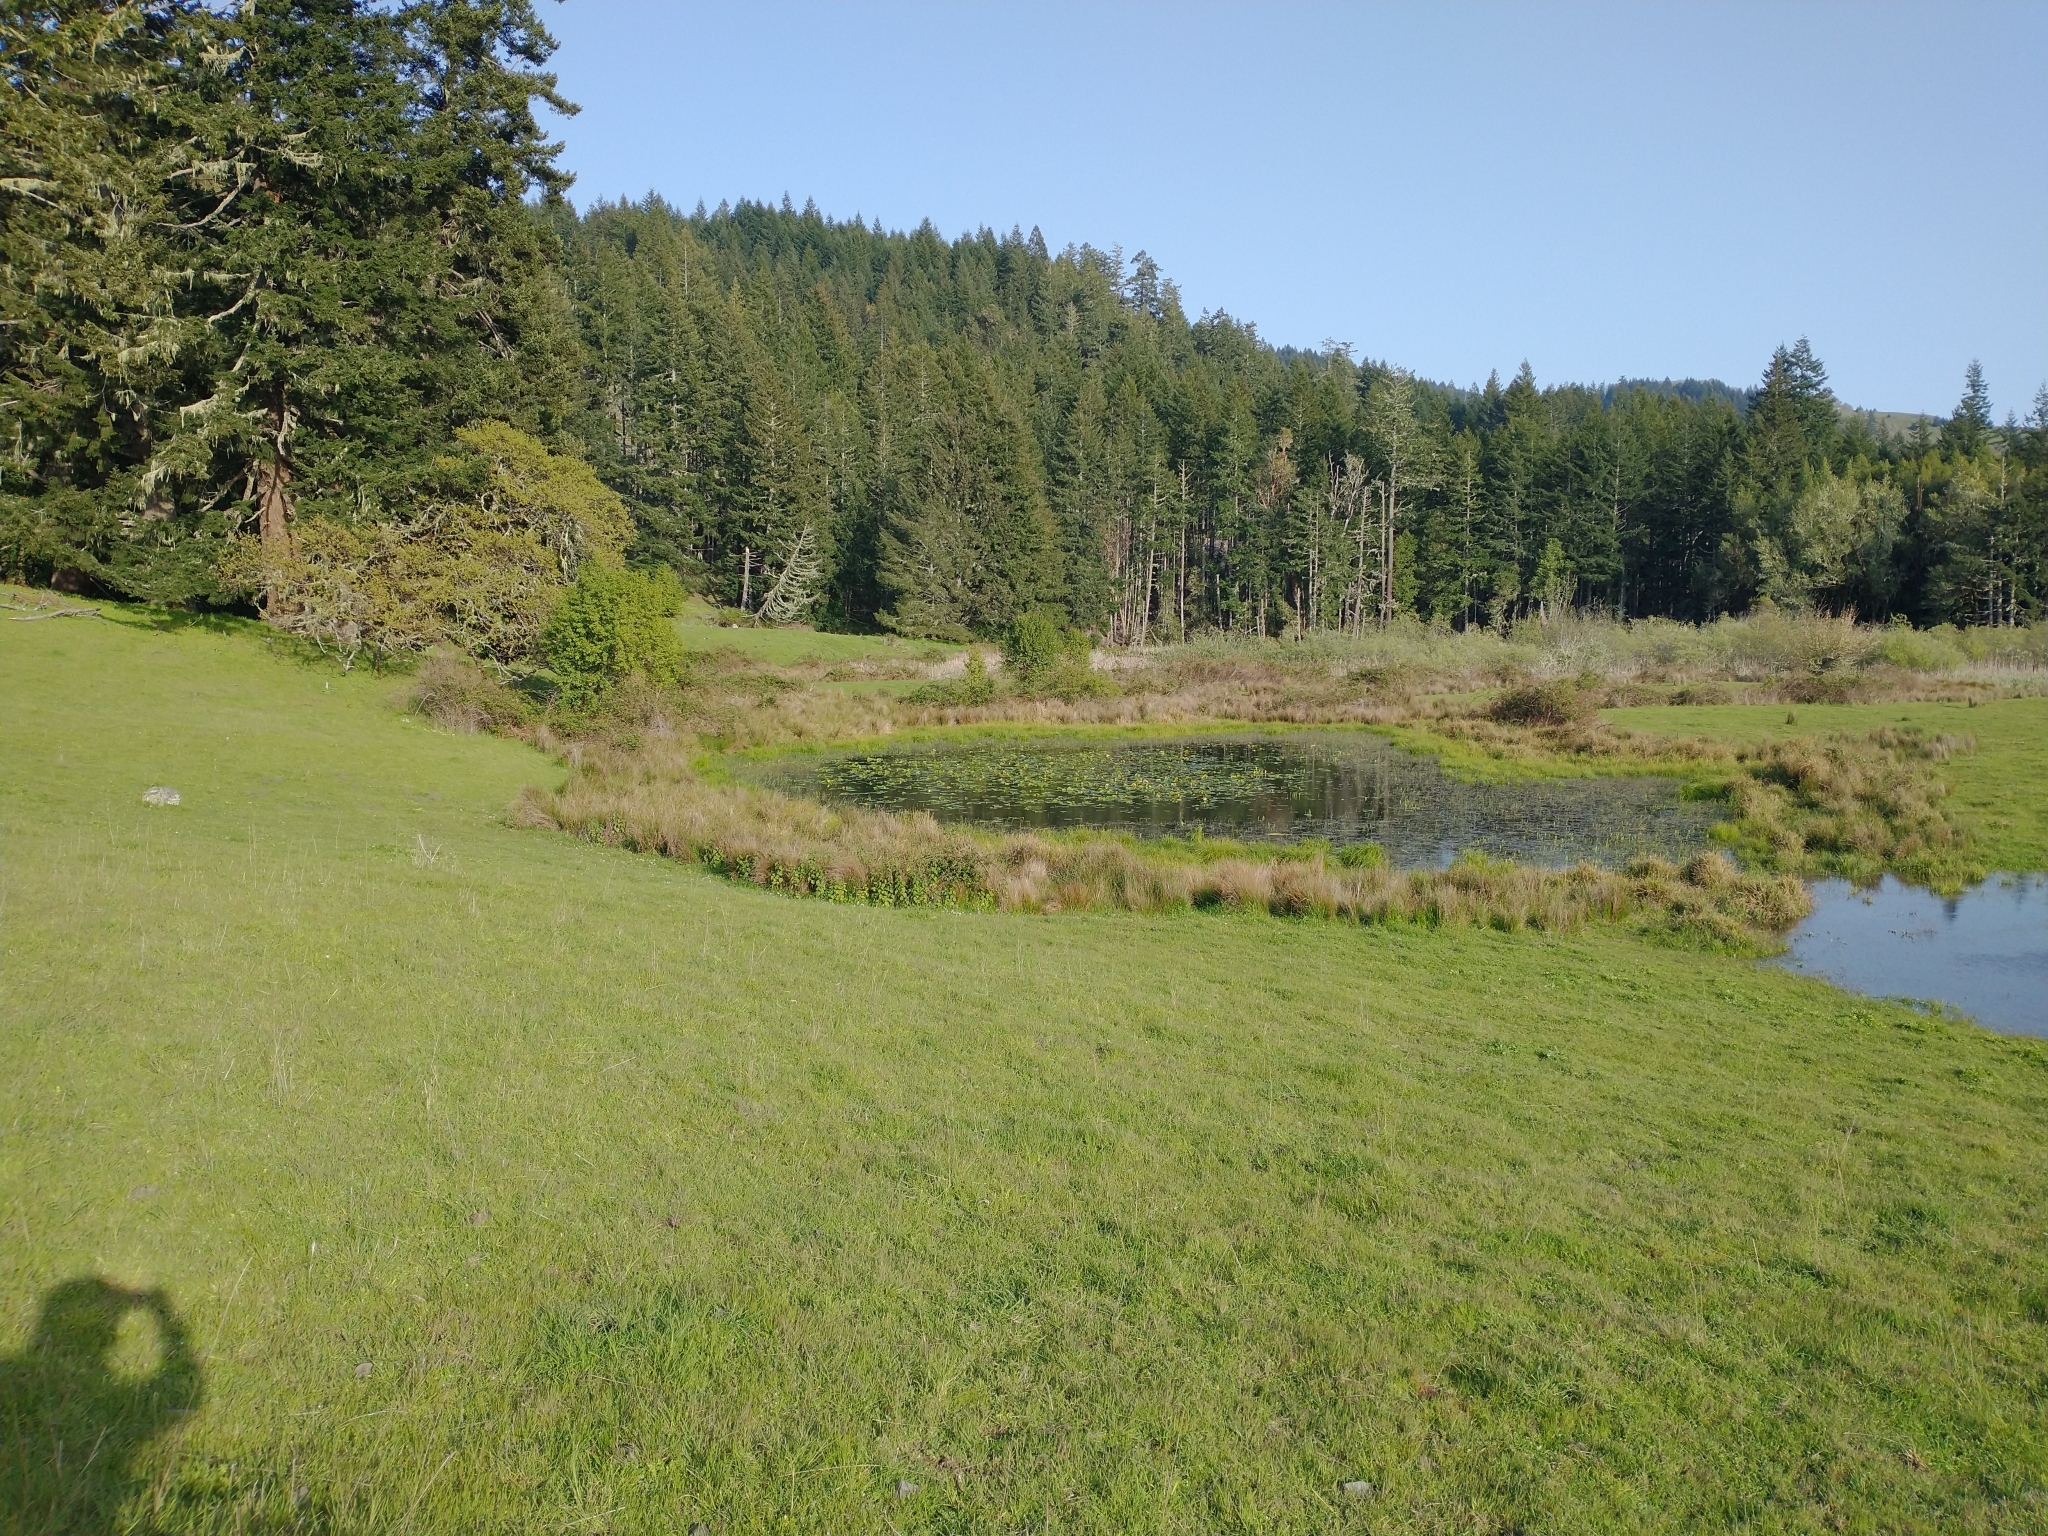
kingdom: Plantae
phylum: Tracheophyta
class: Magnoliopsida
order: Nymphaeales
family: Nymphaeaceae
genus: Nuphar
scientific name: Nuphar polysepala
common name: Rocky mountain cow-lily
